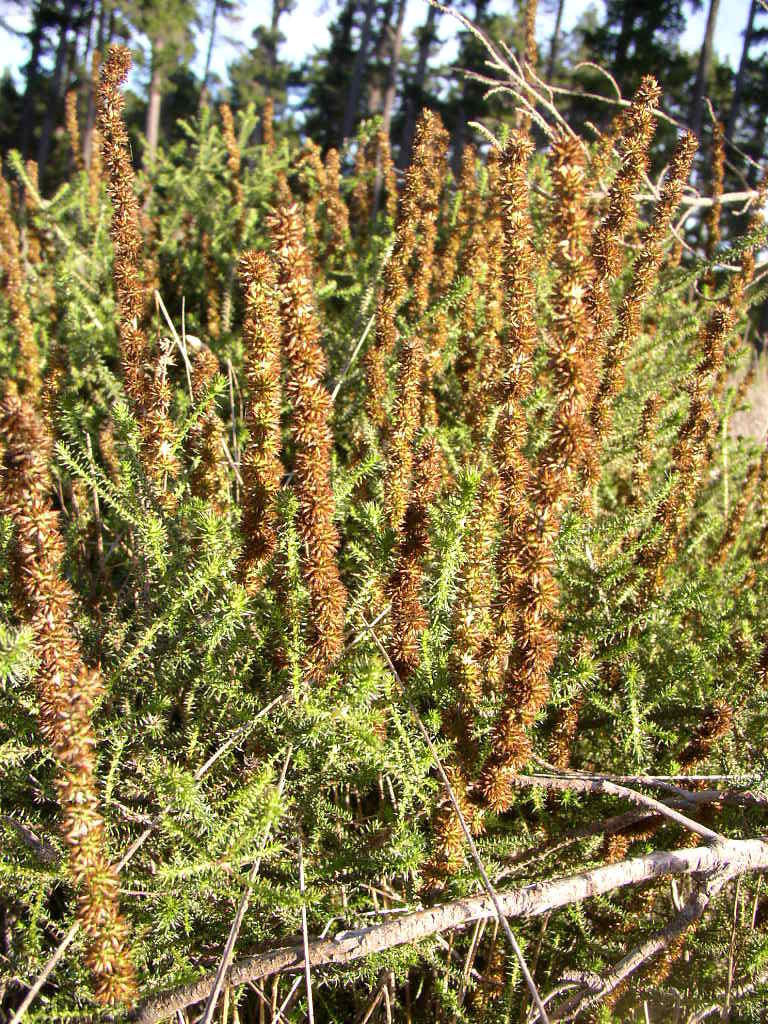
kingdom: Plantae
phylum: Tracheophyta
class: Magnoliopsida
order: Asterales
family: Asteraceae
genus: Seriphium
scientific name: Seriphium cinereum
